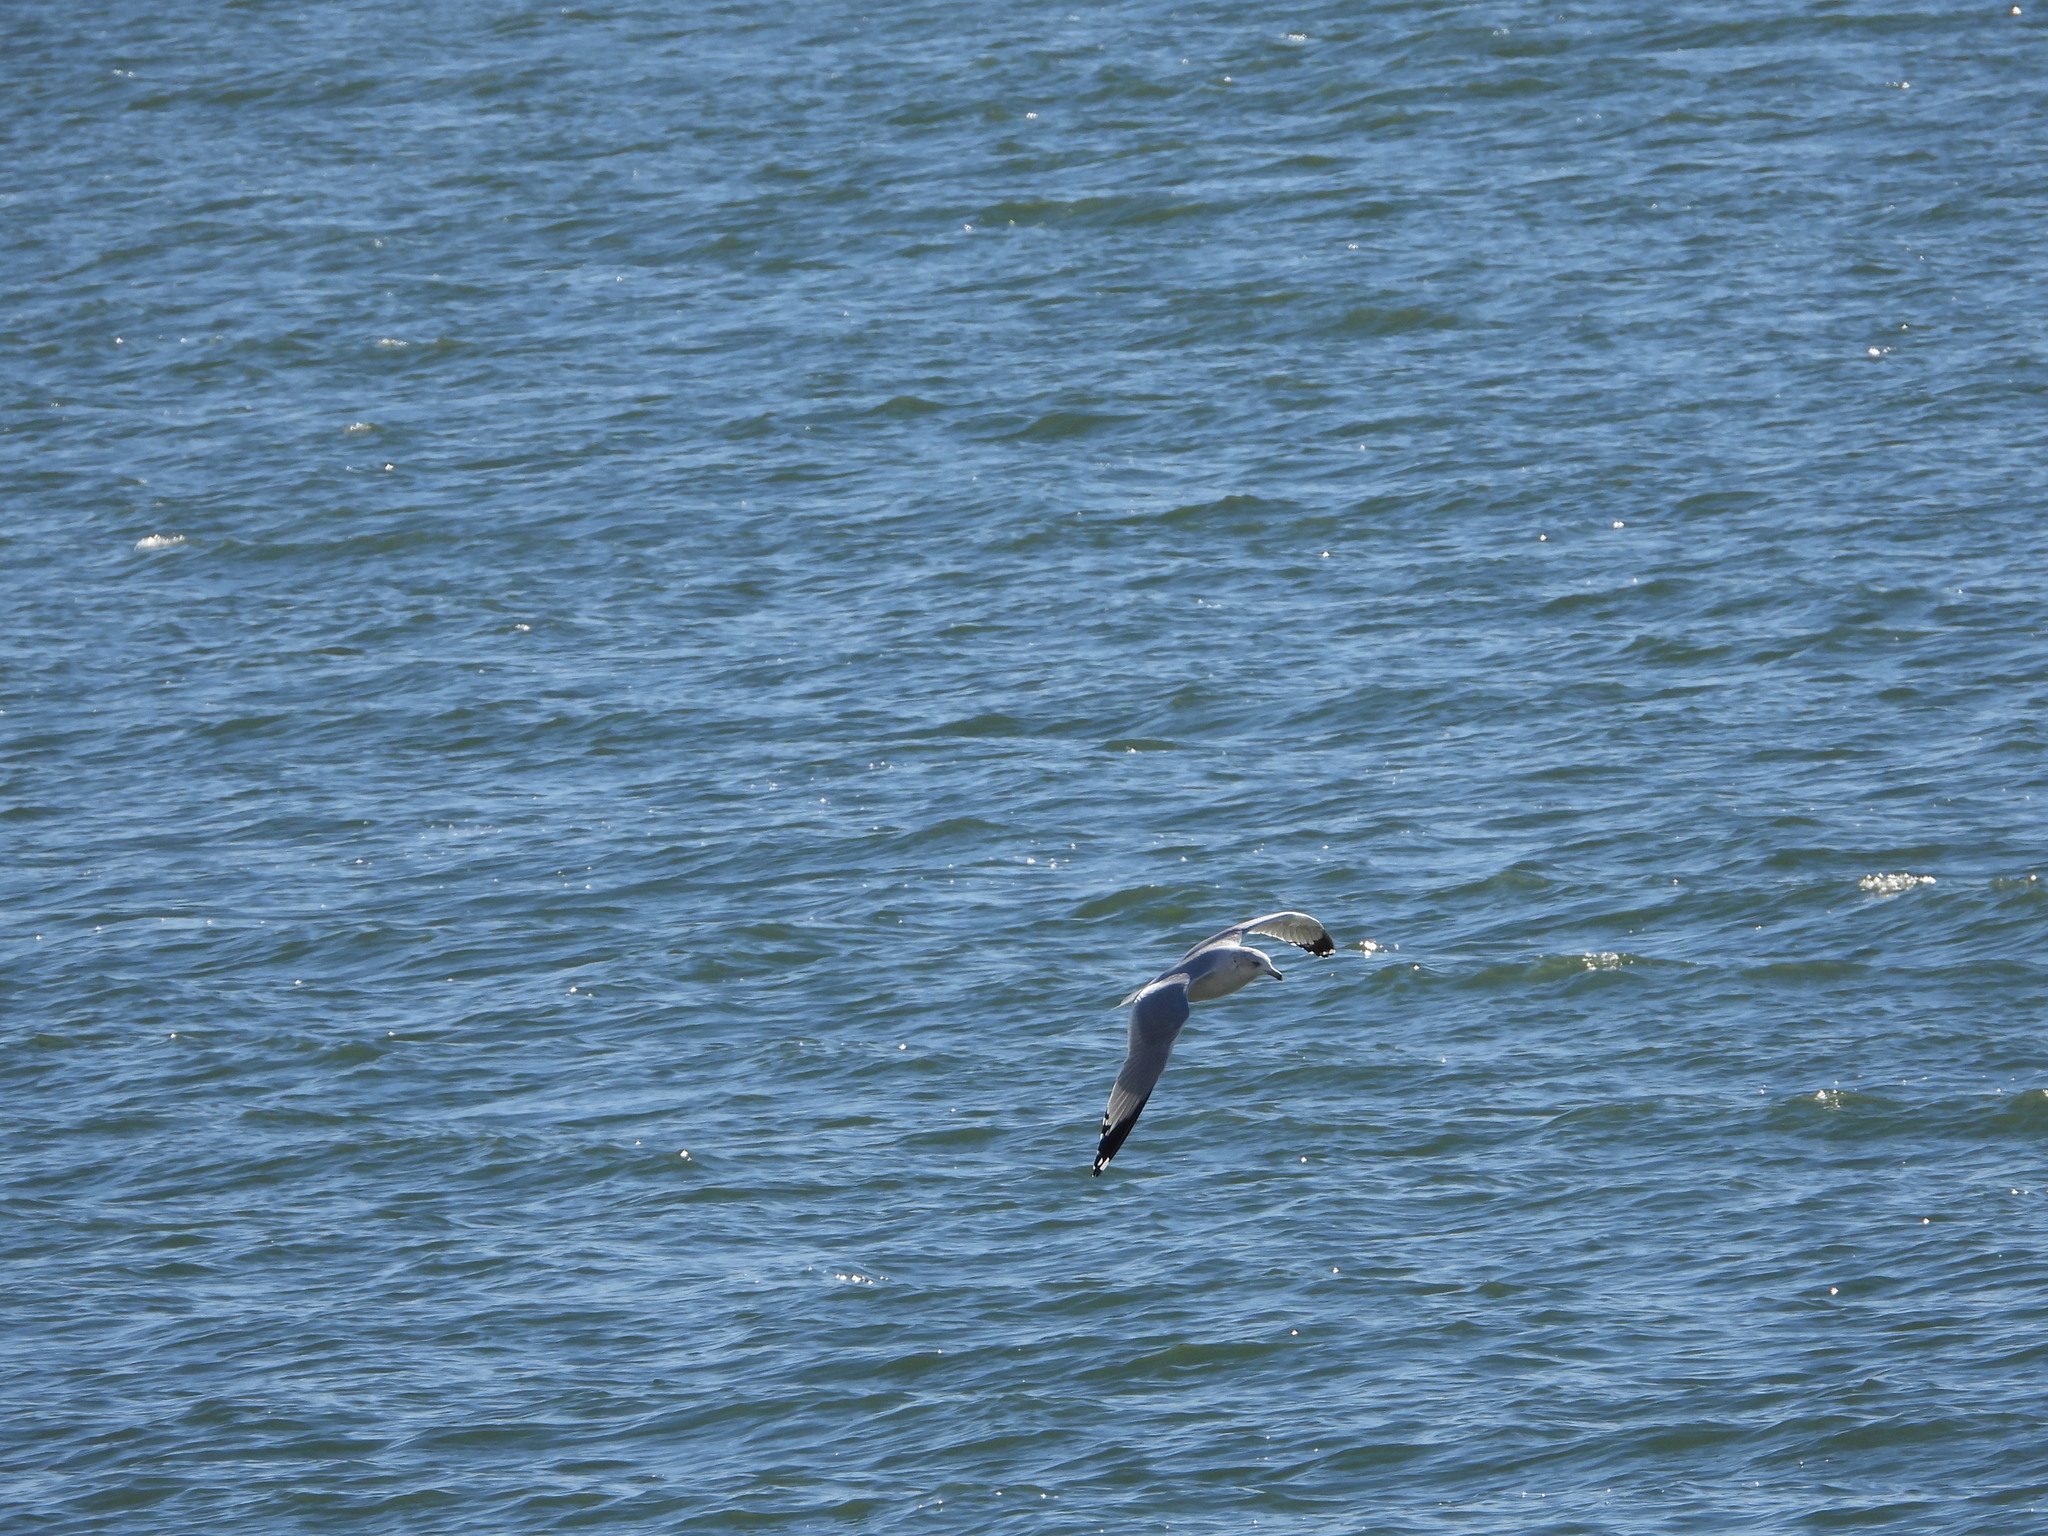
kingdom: Animalia
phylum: Chordata
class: Aves
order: Charadriiformes
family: Laridae
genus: Larus
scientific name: Larus delawarensis
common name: Ring-billed gull
